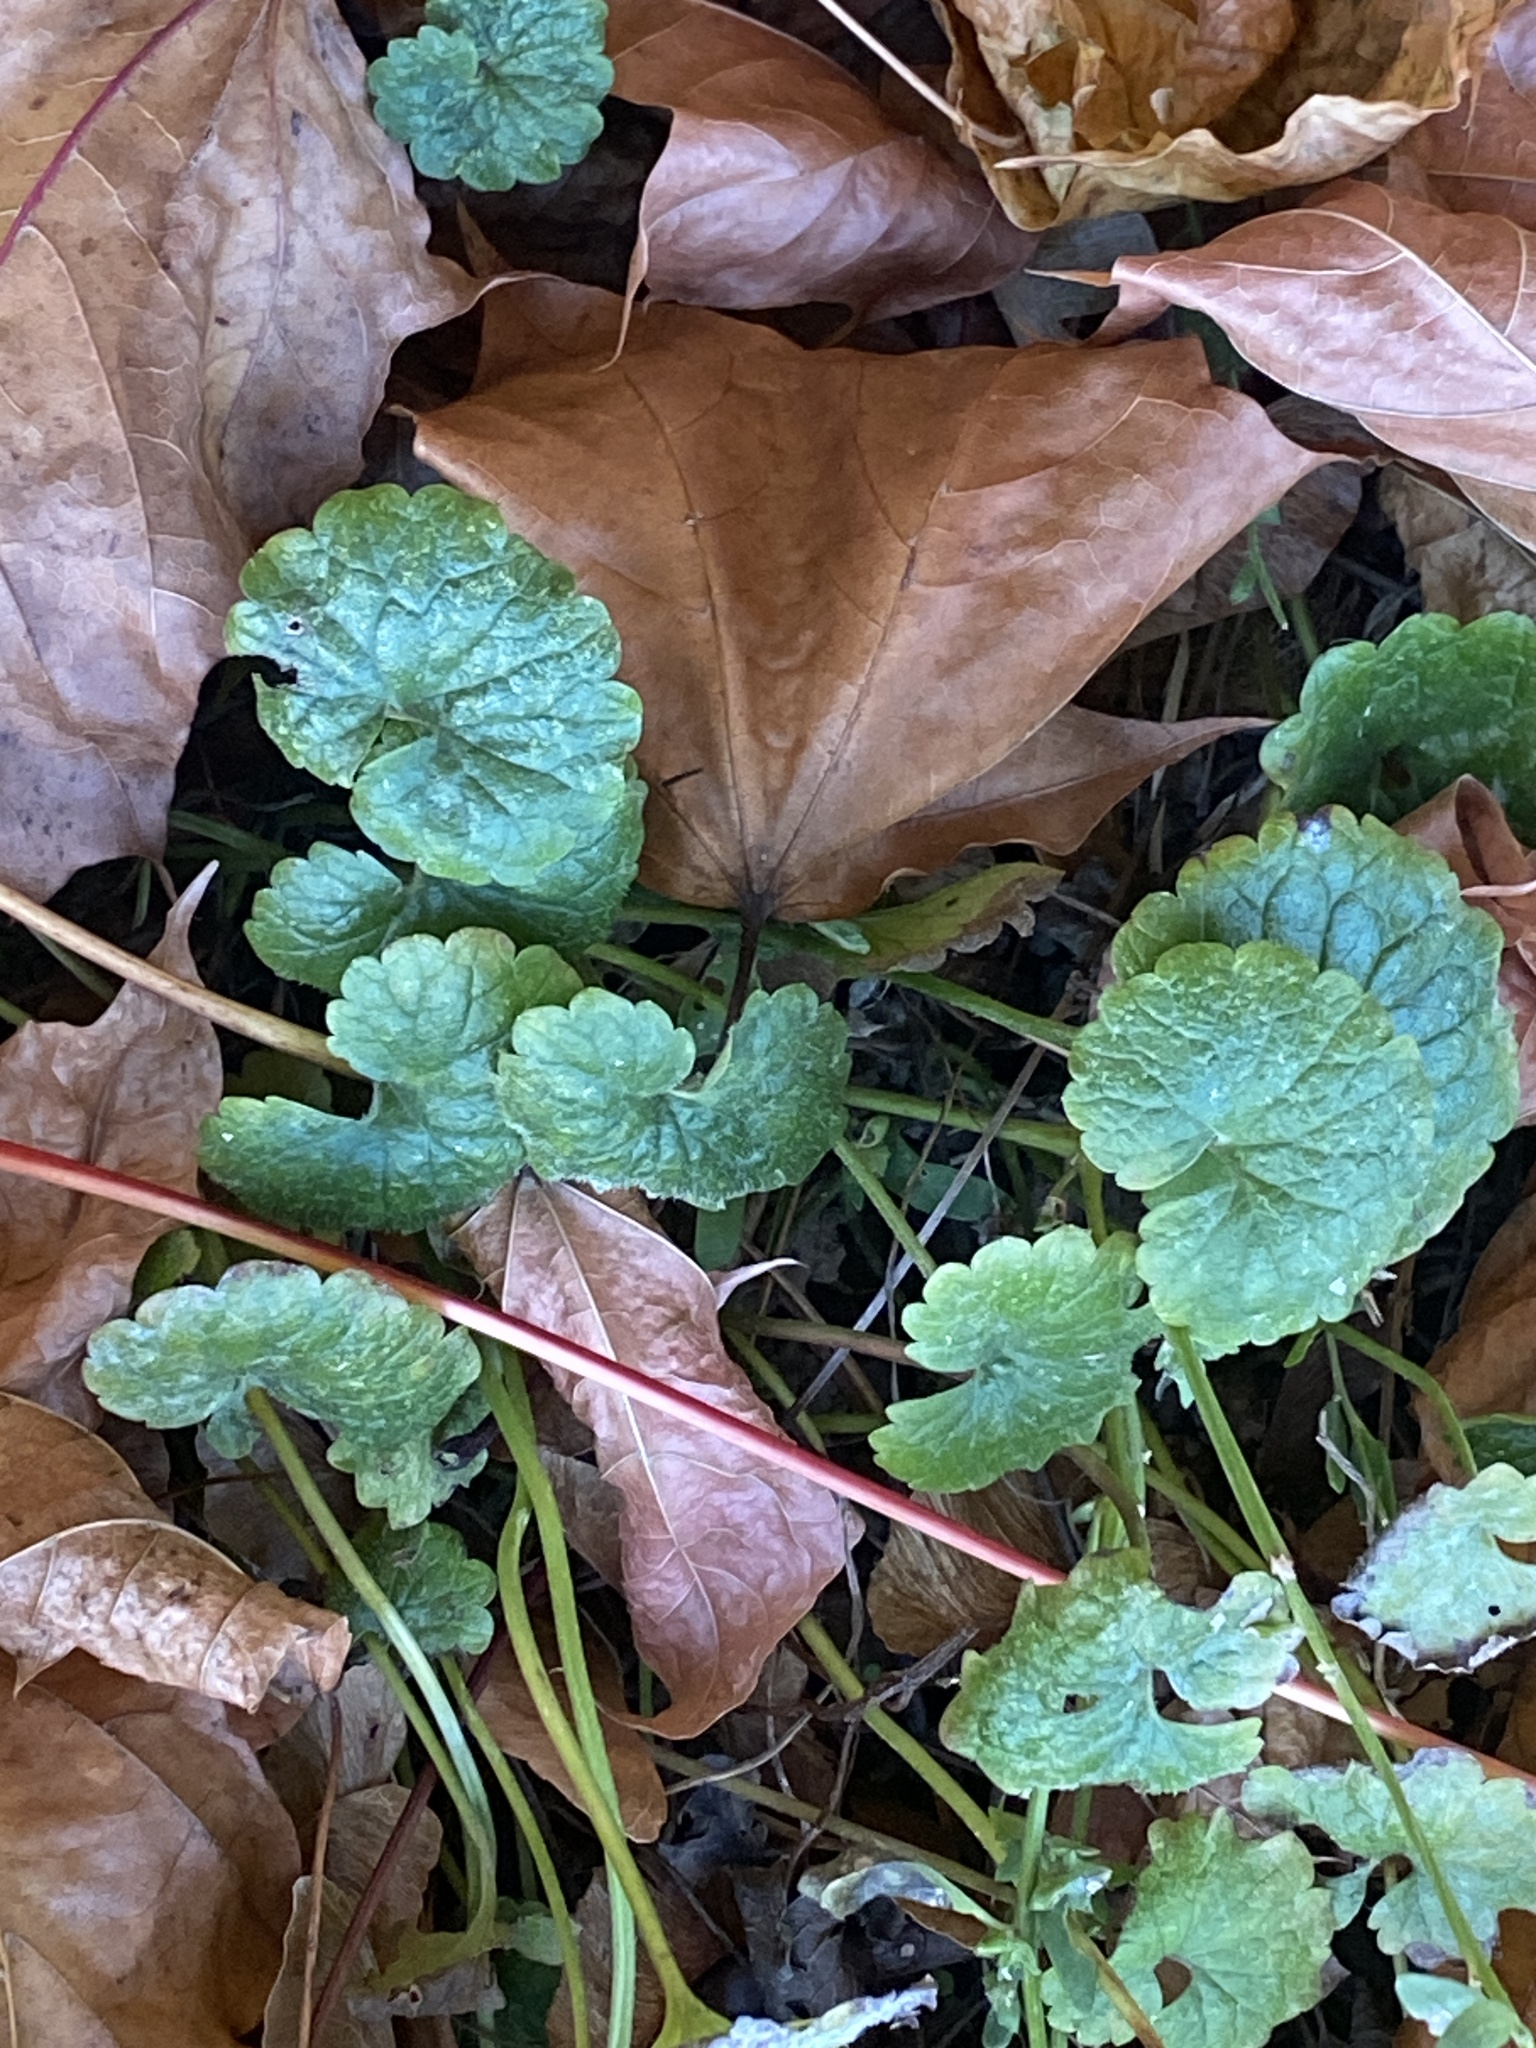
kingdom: Plantae
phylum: Tracheophyta
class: Magnoliopsida
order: Lamiales
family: Lamiaceae
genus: Glechoma
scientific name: Glechoma hederacea
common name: Ground ivy
